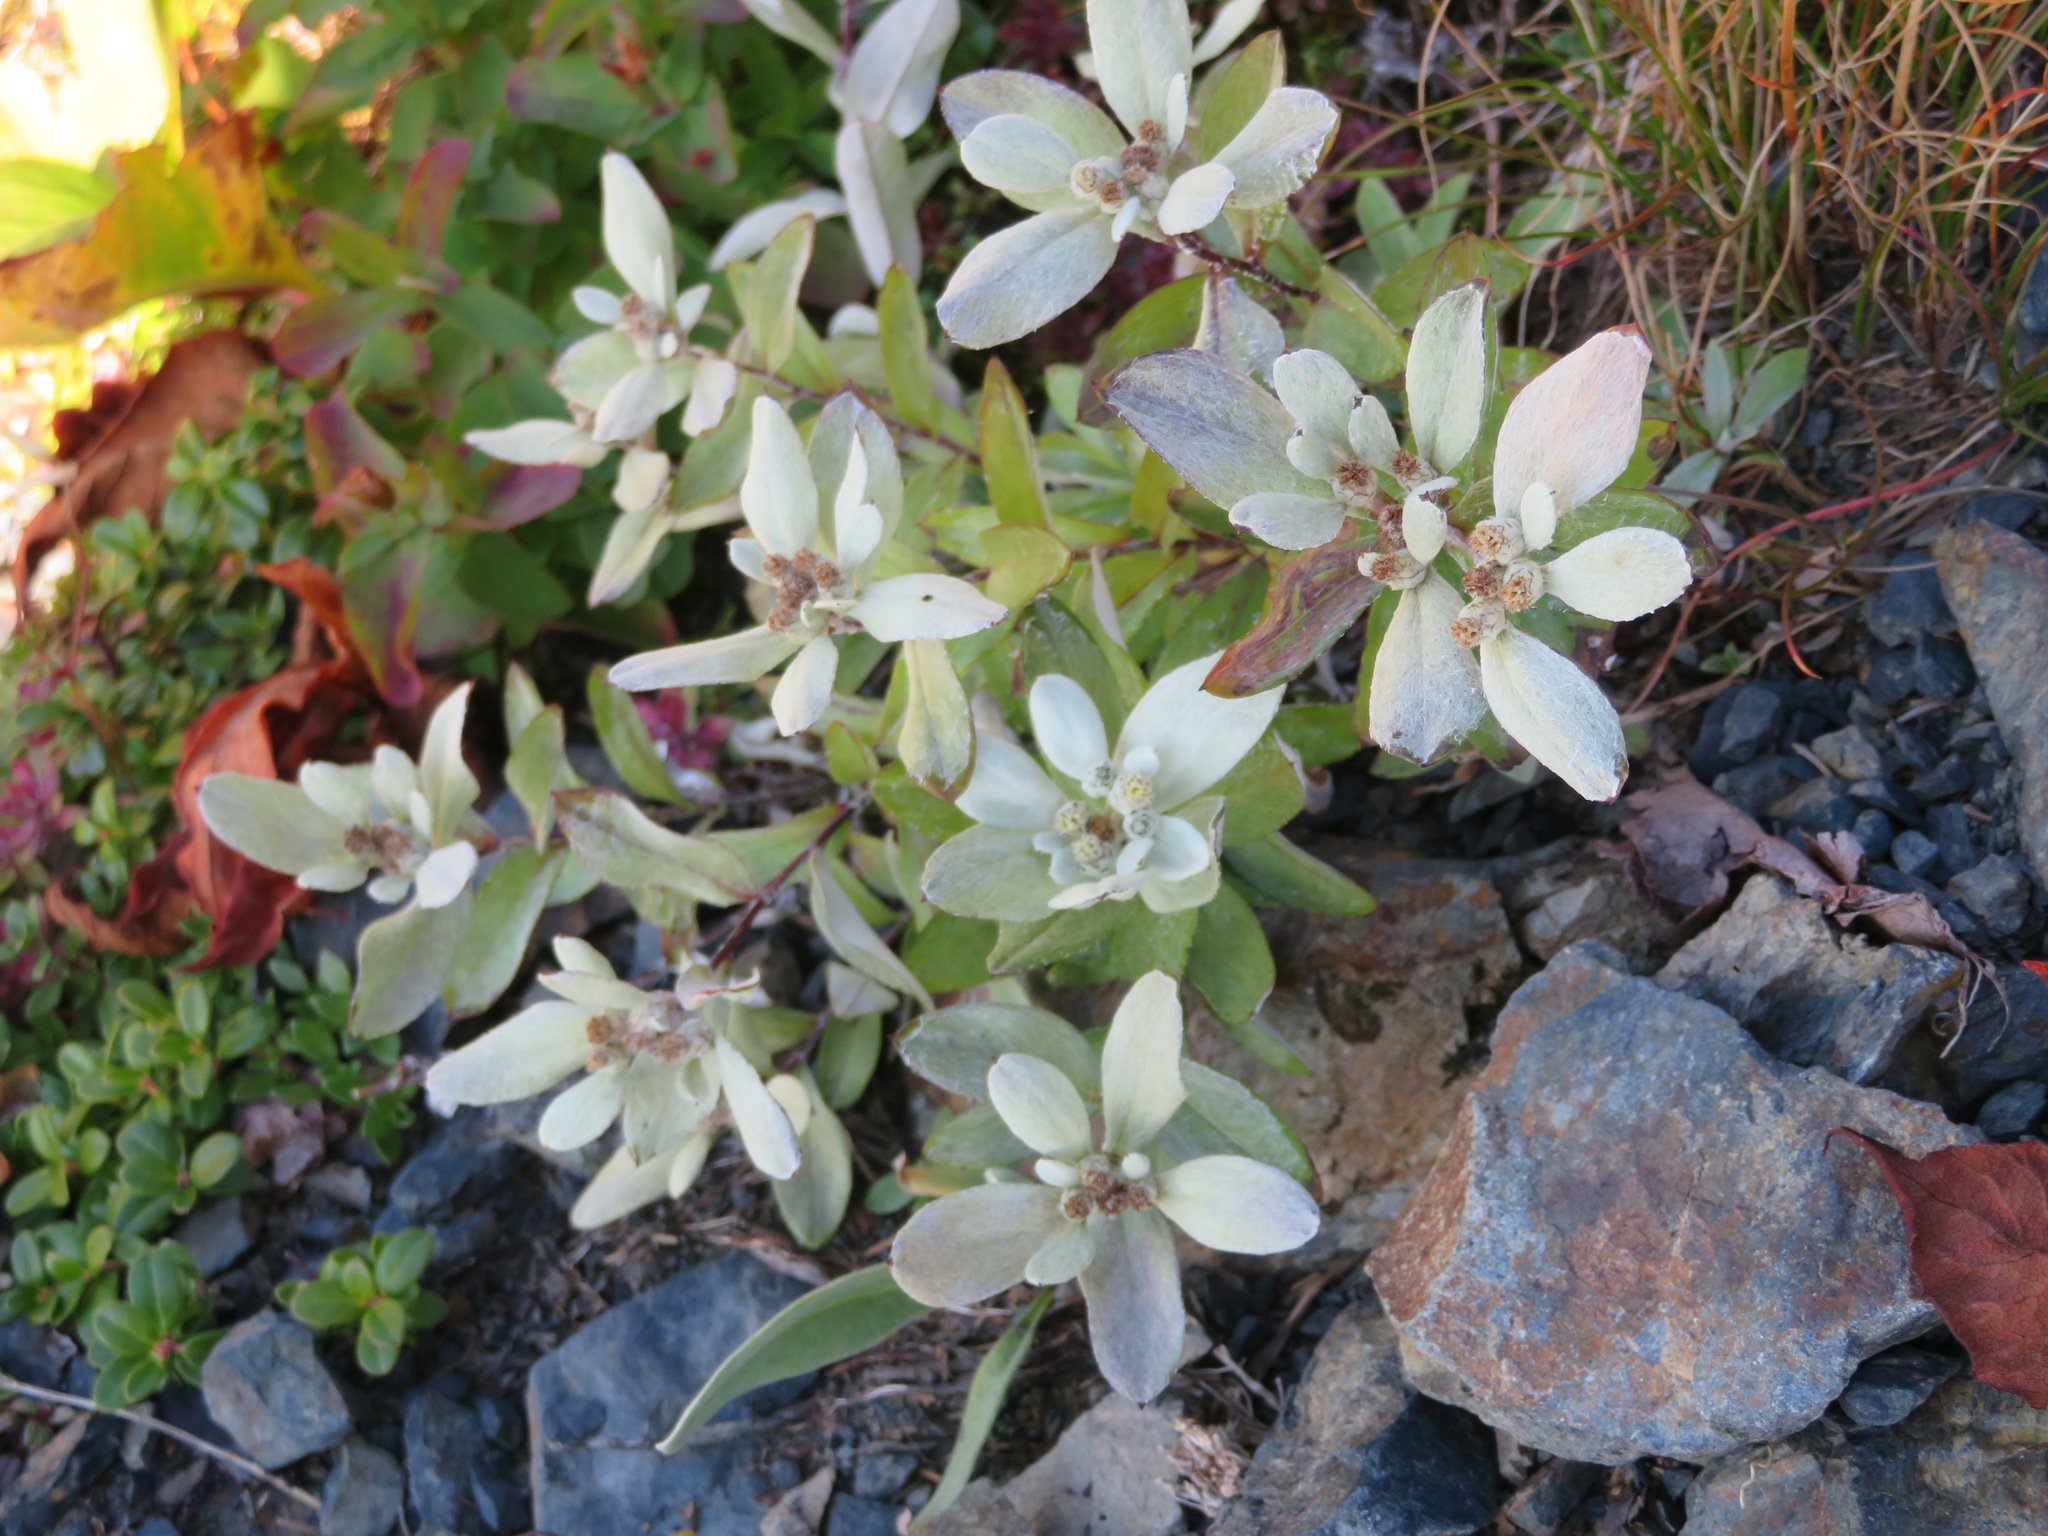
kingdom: Plantae
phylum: Tracheophyta
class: Magnoliopsida
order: Asterales
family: Asteraceae
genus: Leontopodium
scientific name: Leontopodium japonicum
